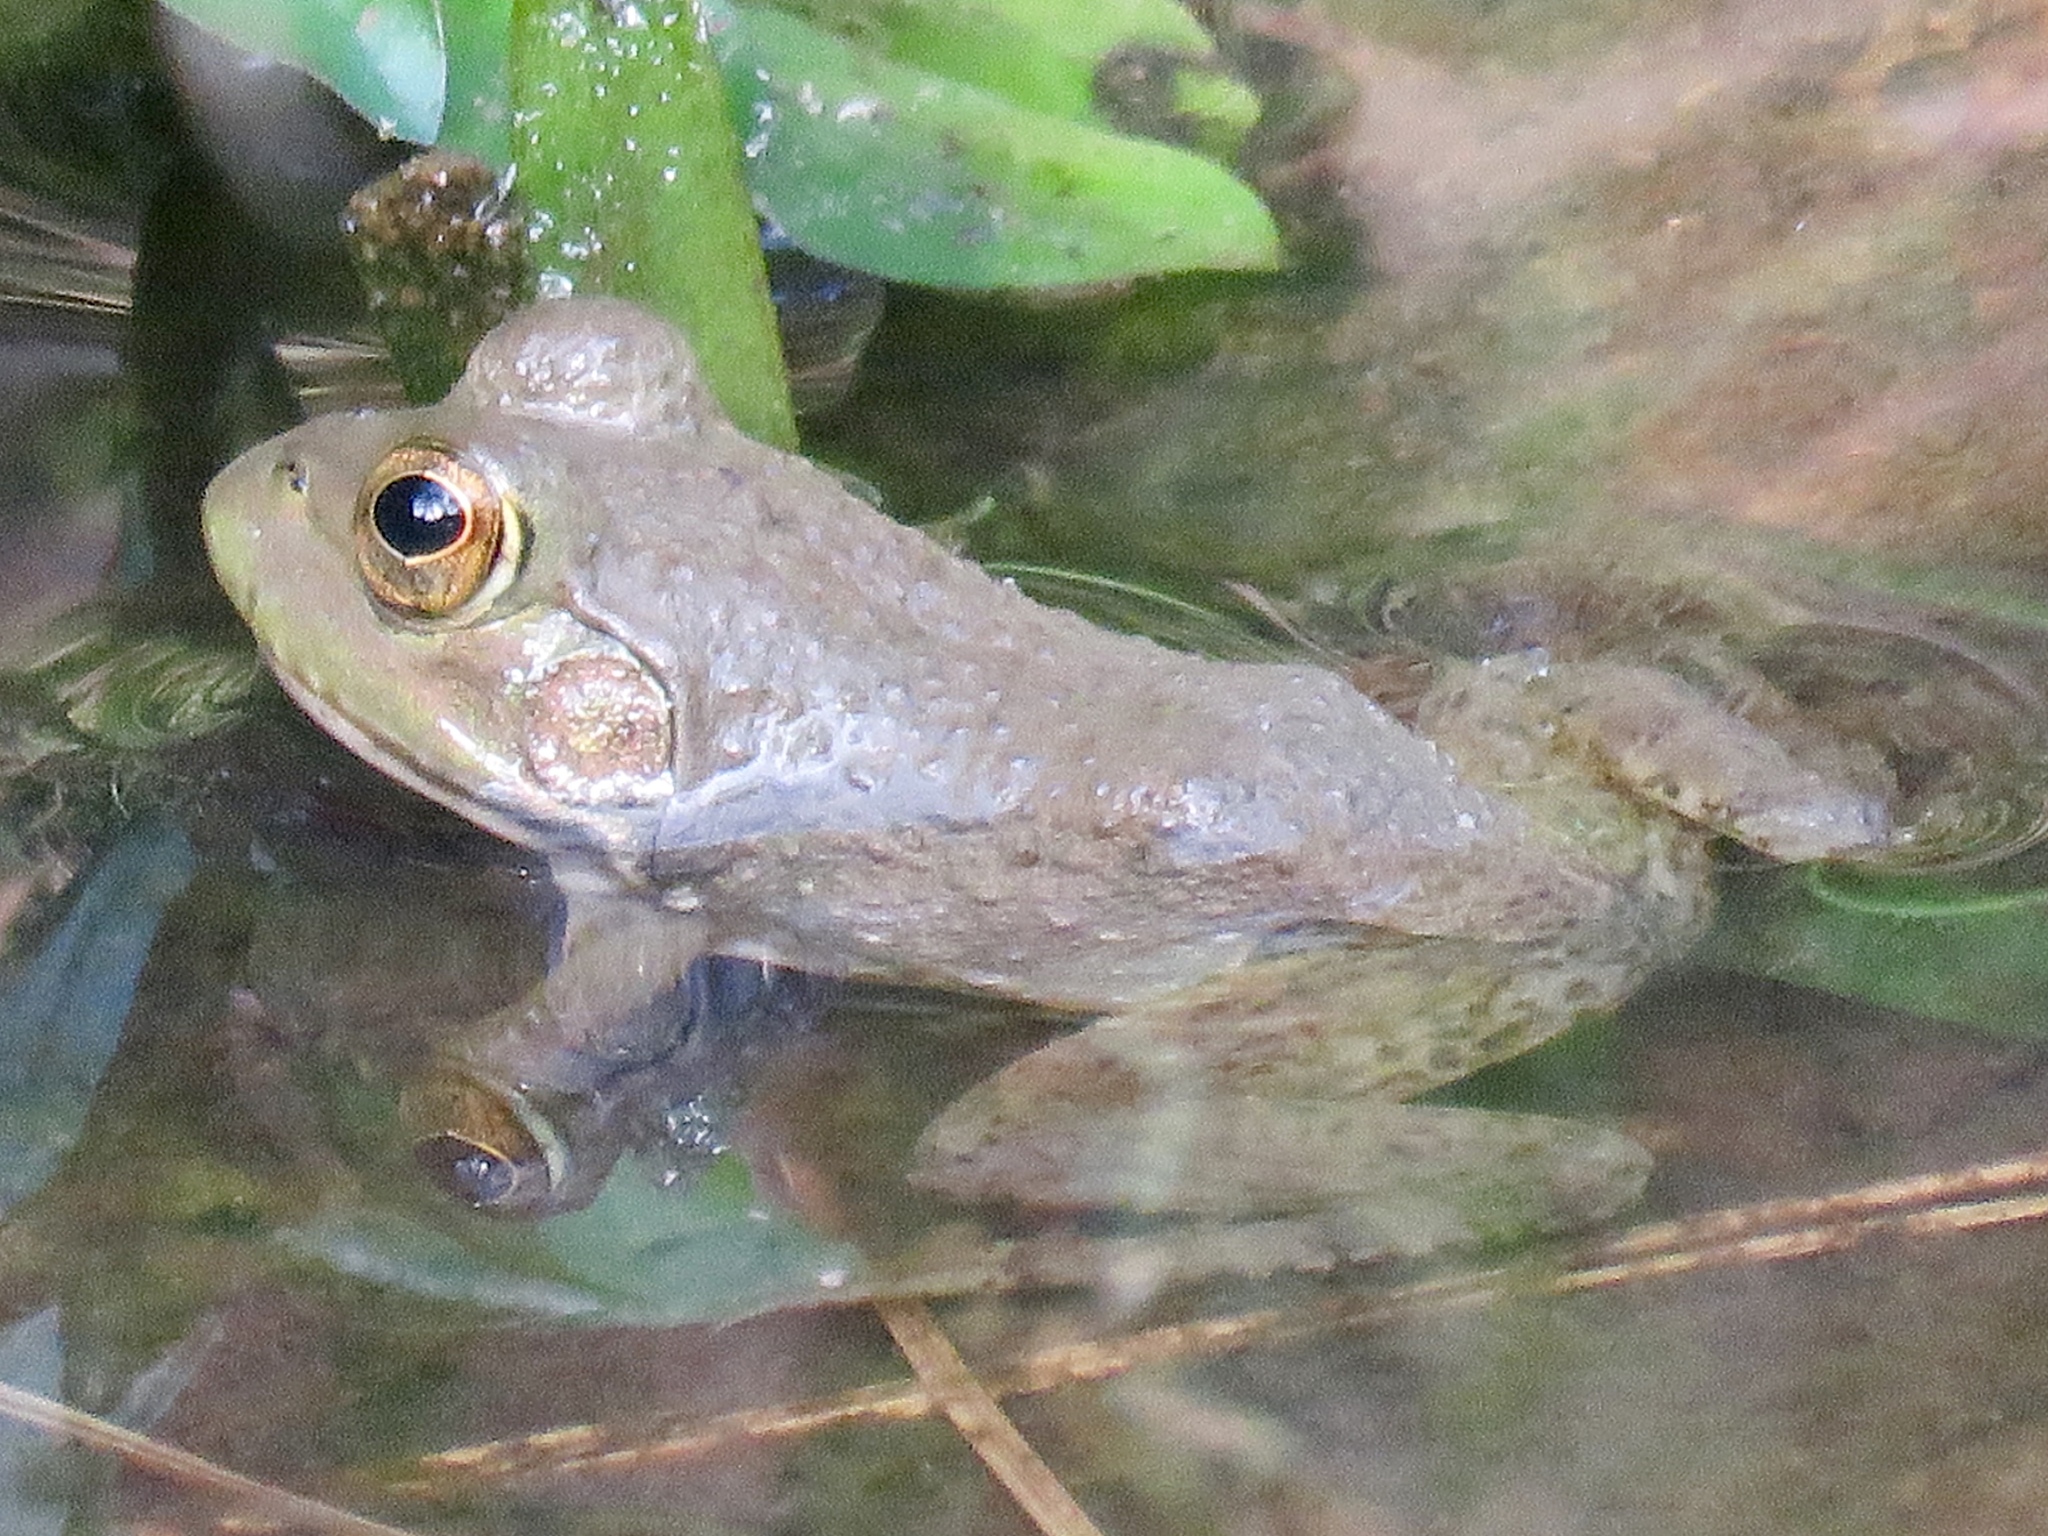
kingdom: Animalia
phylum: Chordata
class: Amphibia
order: Anura
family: Ranidae
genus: Lithobates
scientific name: Lithobates catesbeianus
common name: American bullfrog
